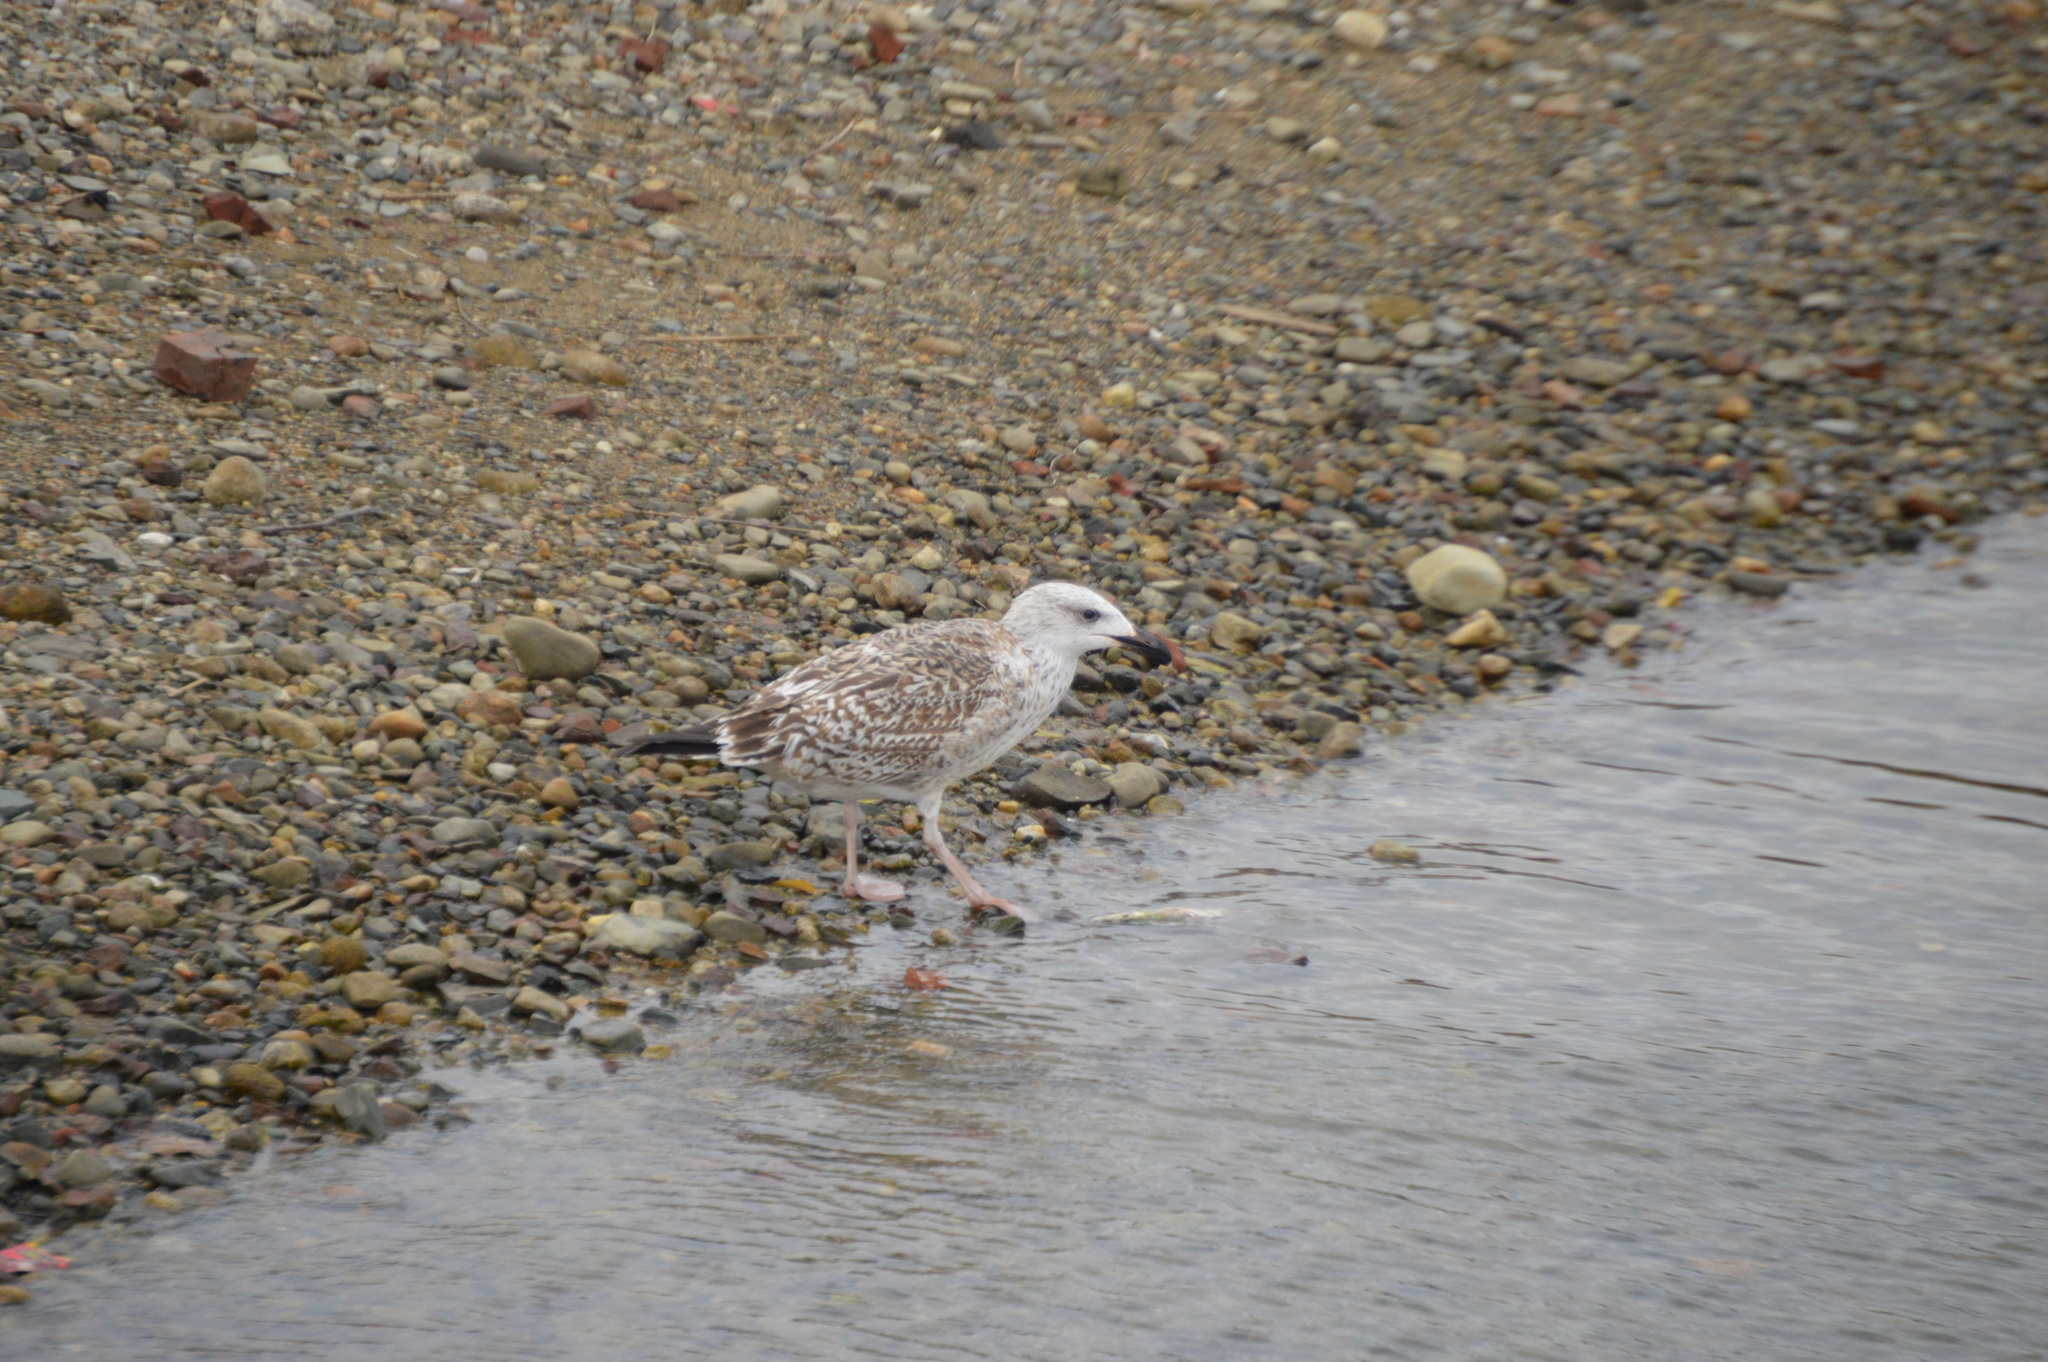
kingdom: Animalia
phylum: Chordata
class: Aves
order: Charadriiformes
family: Laridae
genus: Larus
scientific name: Larus marinus
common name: Great black-backed gull
